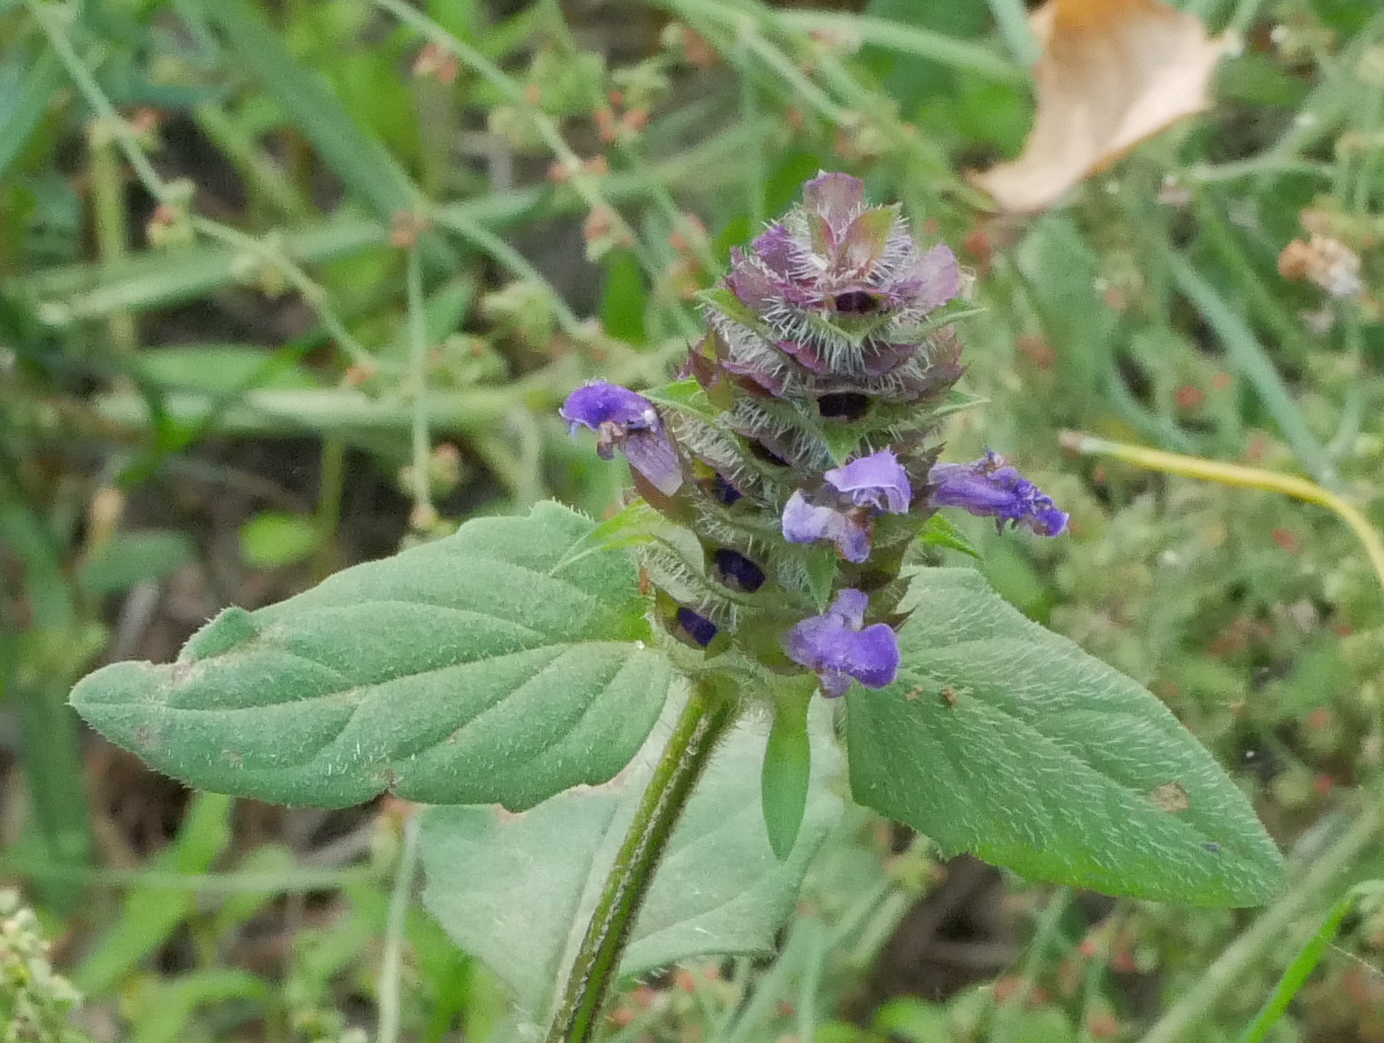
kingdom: Plantae
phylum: Tracheophyta
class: Magnoliopsida
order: Lamiales
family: Lamiaceae
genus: Prunella
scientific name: Prunella vulgaris
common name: Heal-all
